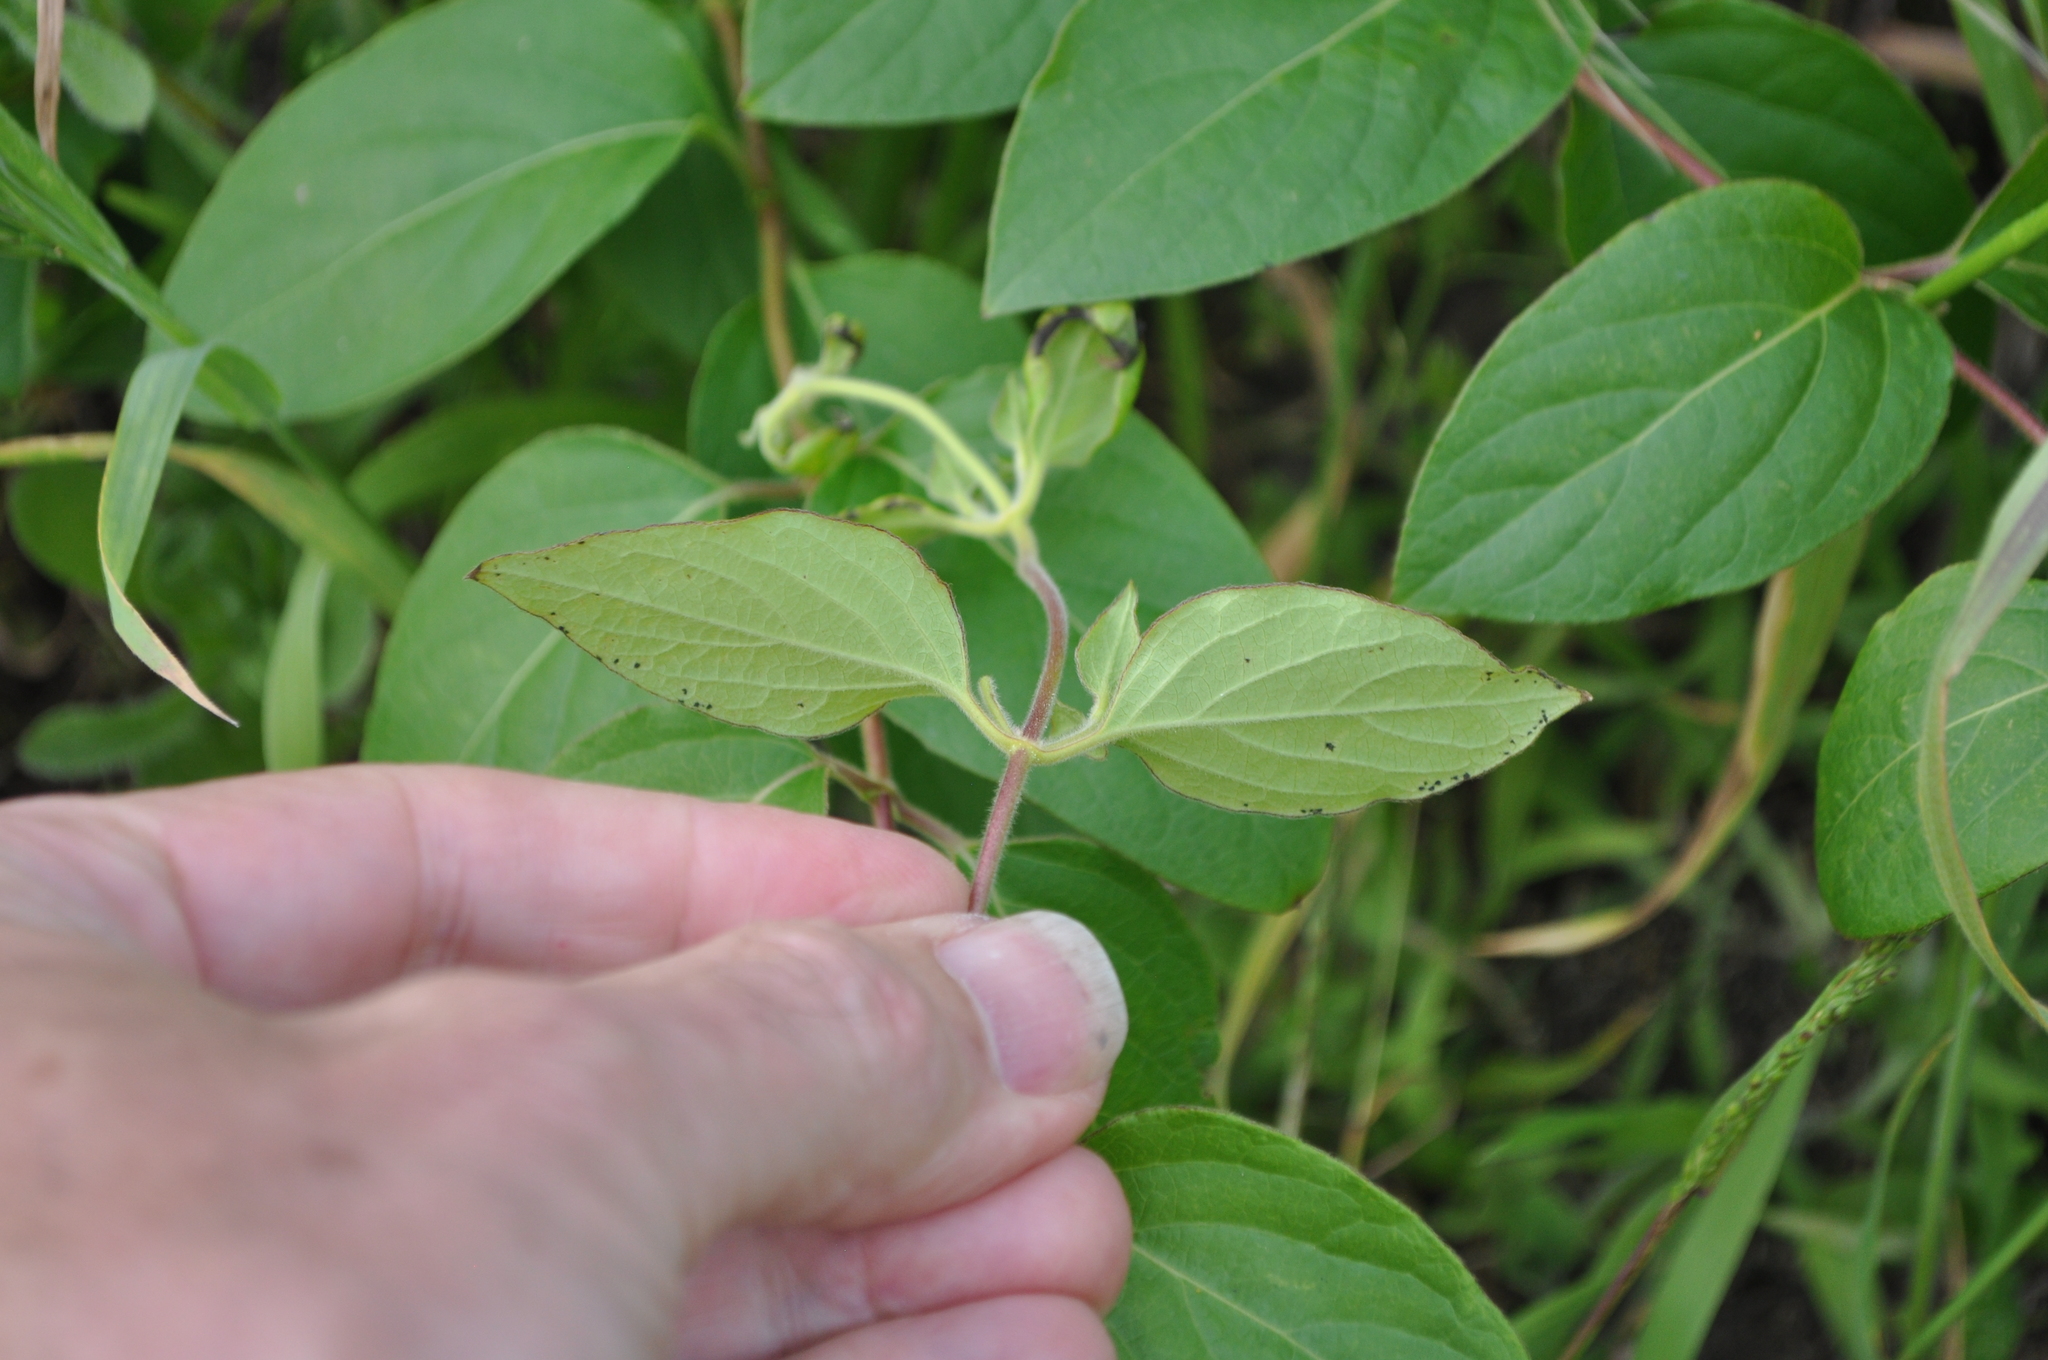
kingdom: Plantae
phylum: Tracheophyta
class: Magnoliopsida
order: Dipsacales
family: Caprifoliaceae
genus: Lonicera
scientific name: Lonicera japonica
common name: Japanese honeysuckle
